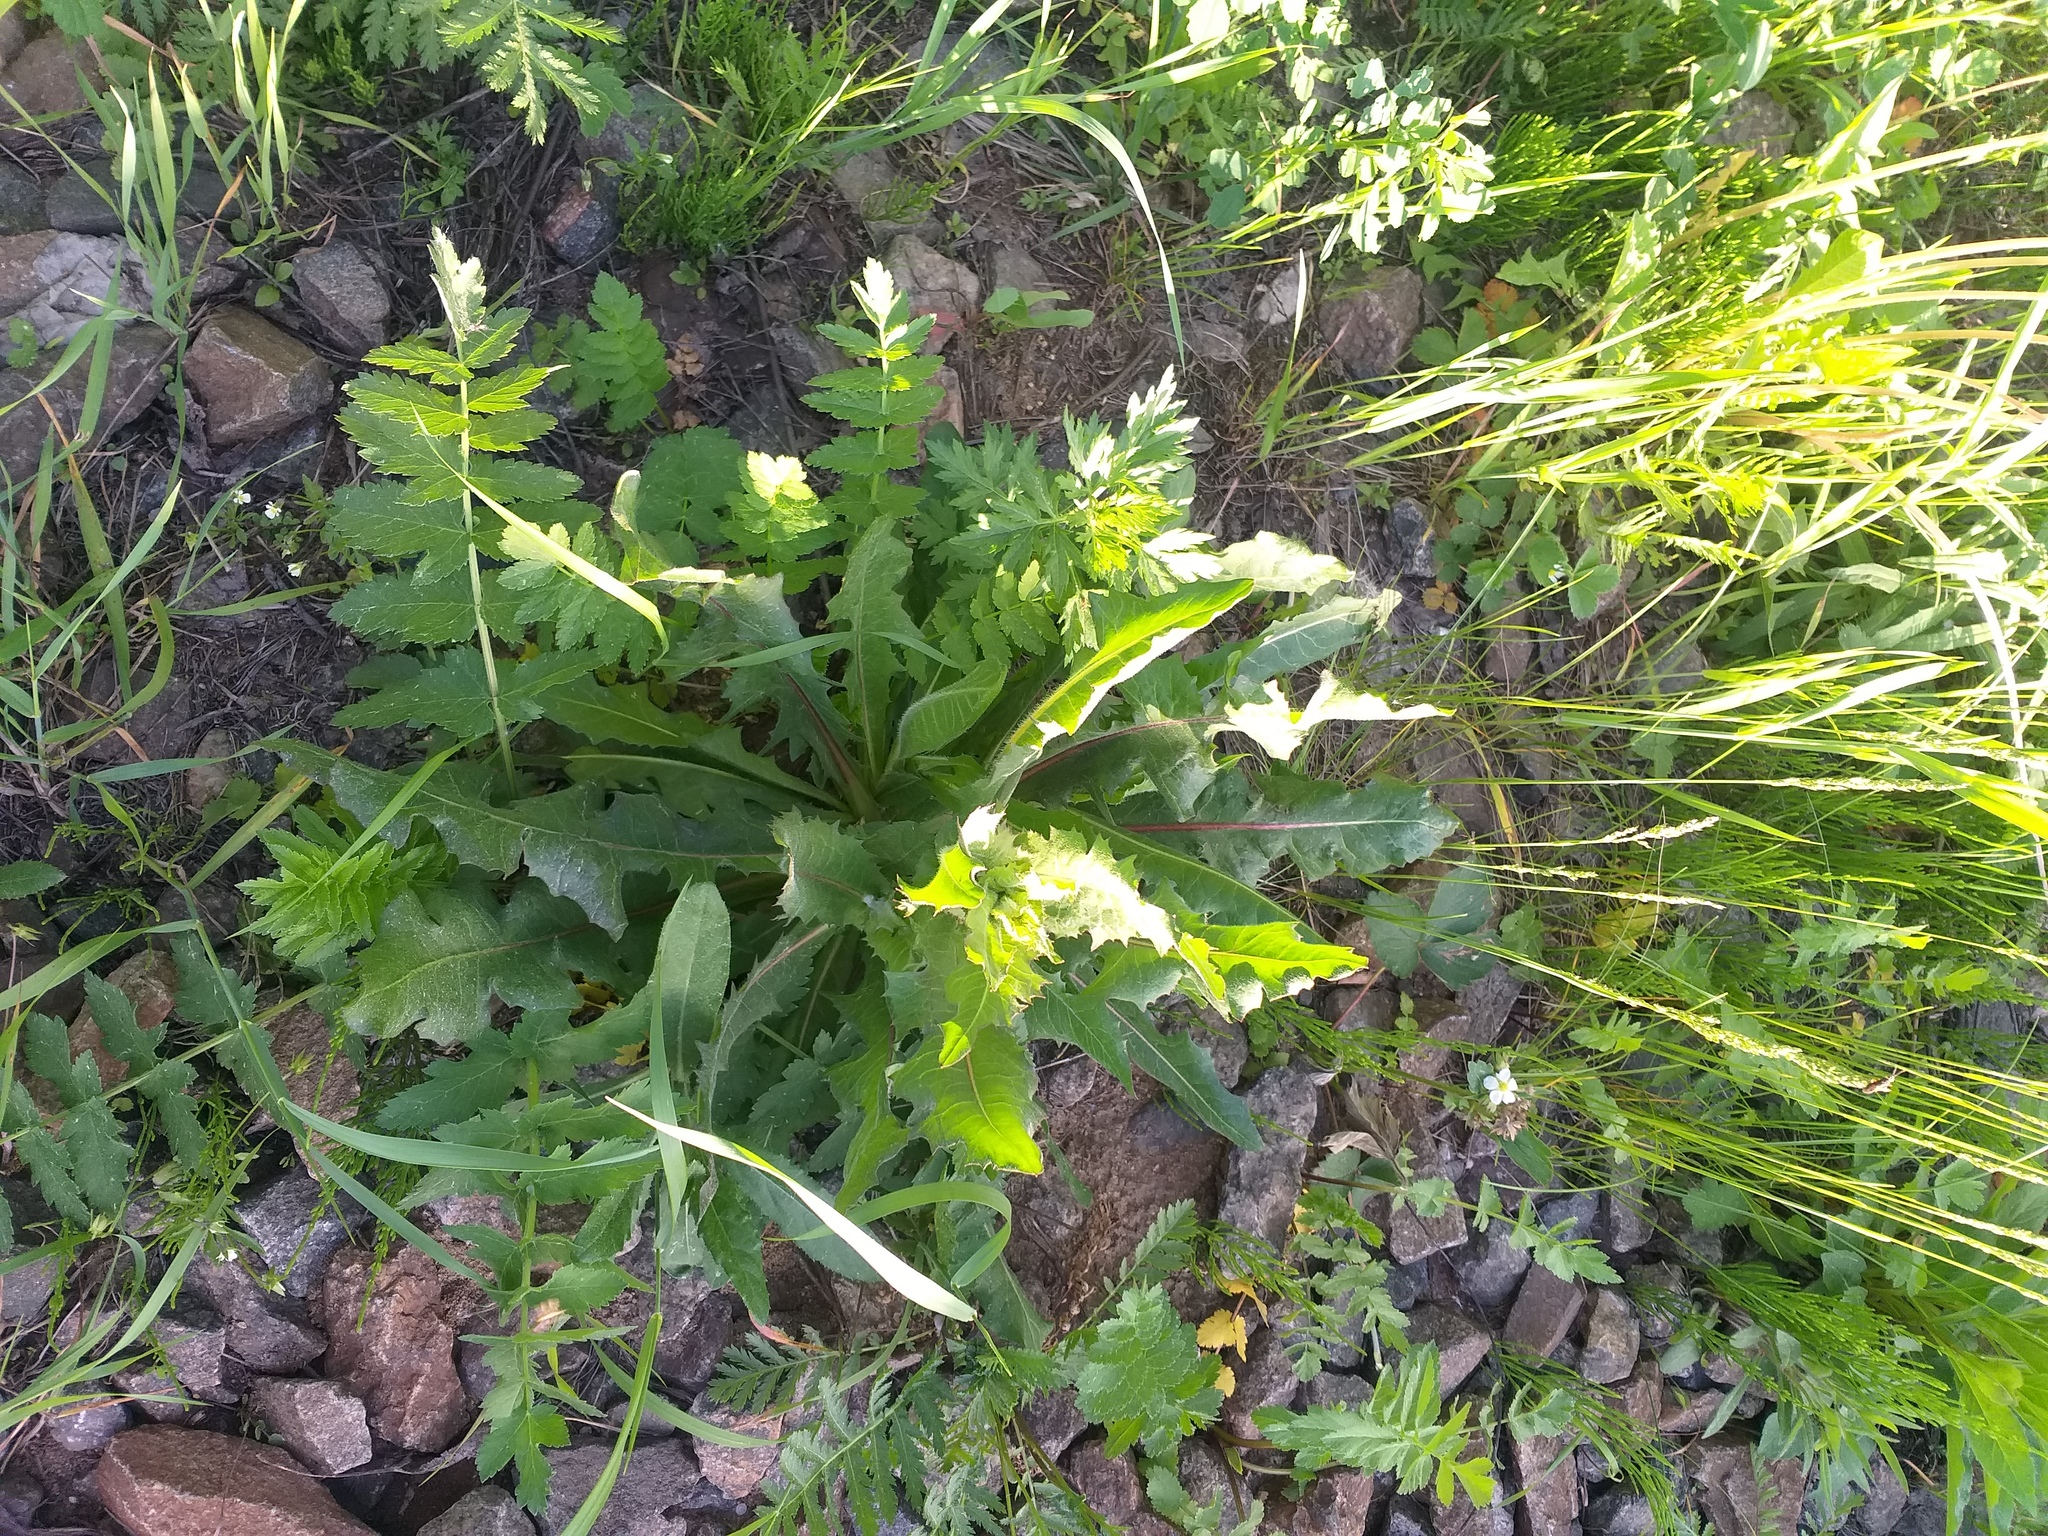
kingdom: Plantae
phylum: Tracheophyta
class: Magnoliopsida
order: Asterales
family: Asteraceae
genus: Cichorium
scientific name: Cichorium intybus
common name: Chicory
